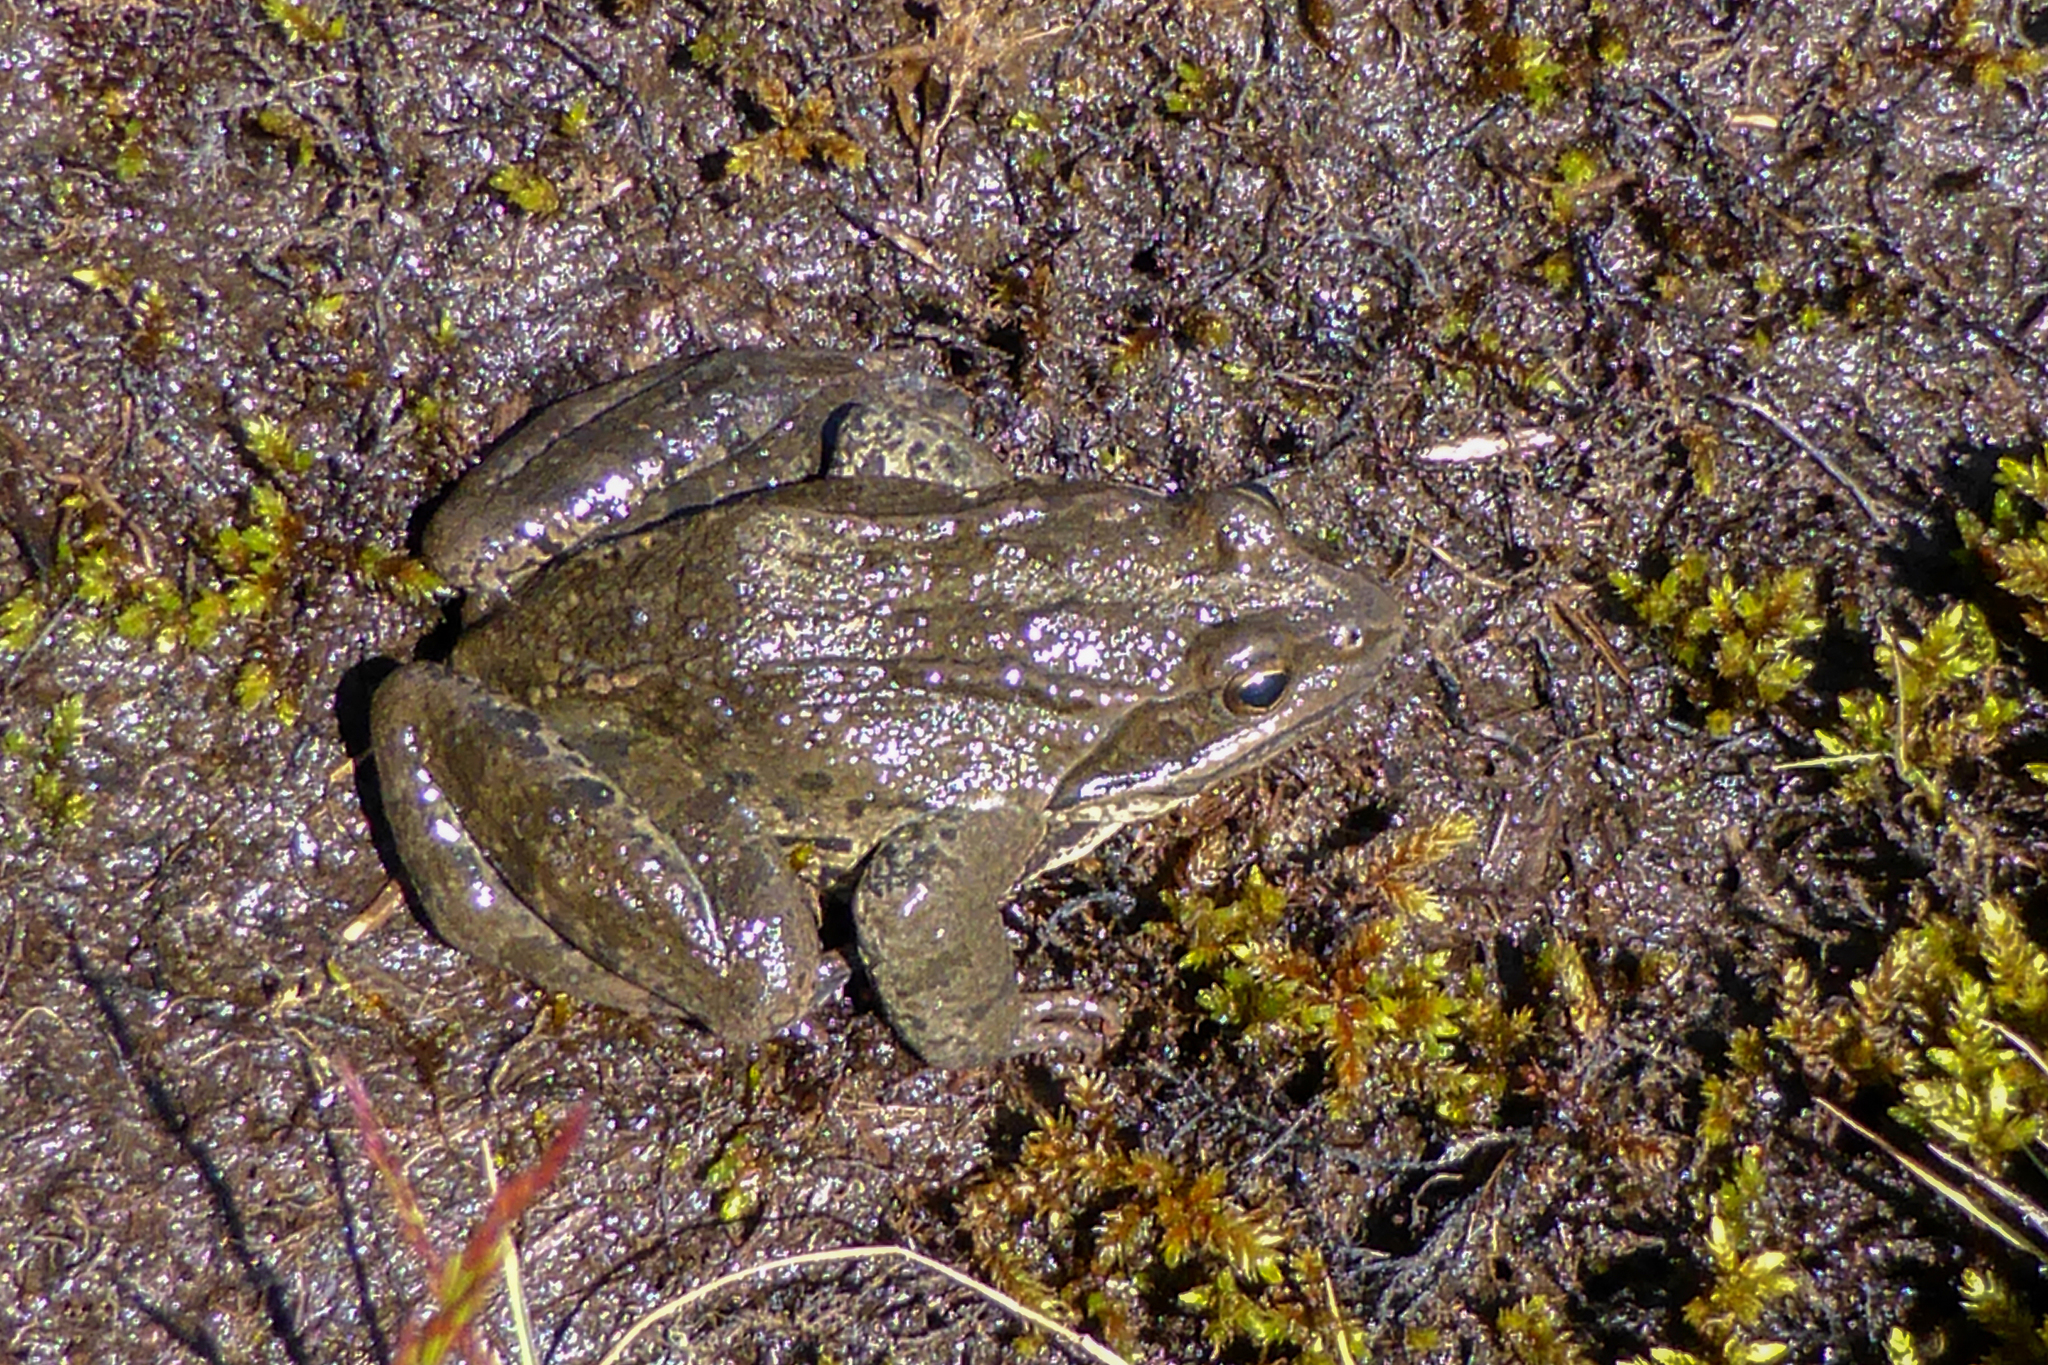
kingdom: Animalia
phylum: Chordata
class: Amphibia
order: Anura
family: Ranidae
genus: Rana
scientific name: Rana macrocnemis
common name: Banded frog
